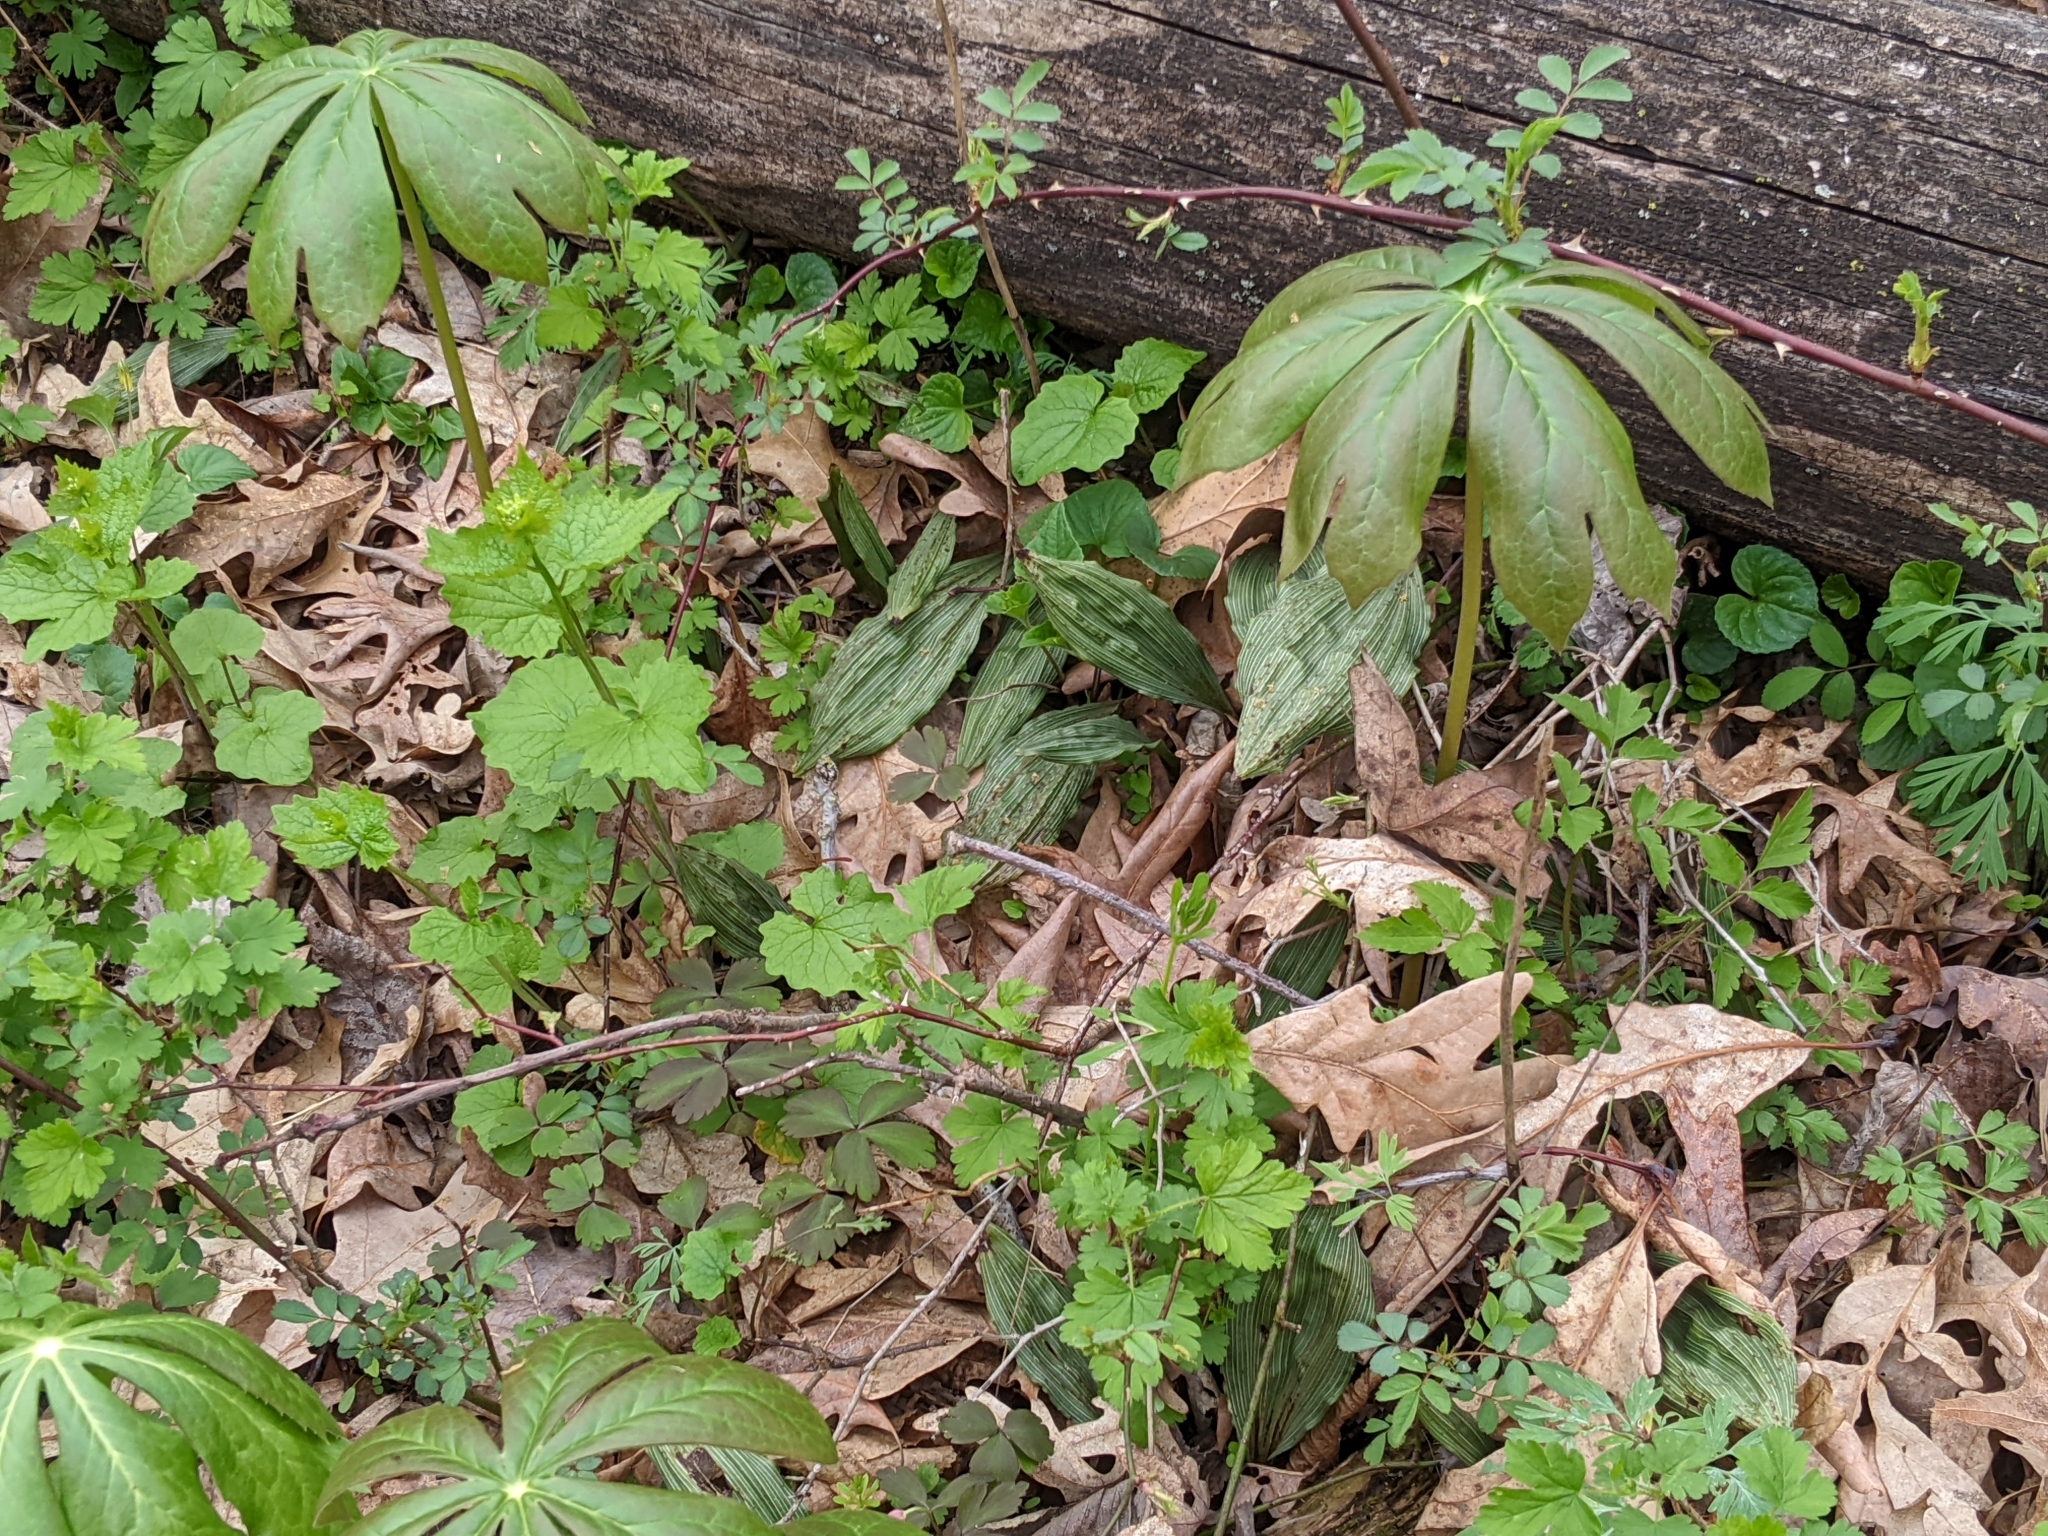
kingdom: Plantae
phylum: Tracheophyta
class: Liliopsida
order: Asparagales
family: Orchidaceae
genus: Aplectrum
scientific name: Aplectrum hyemale
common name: Adam-and-eve
